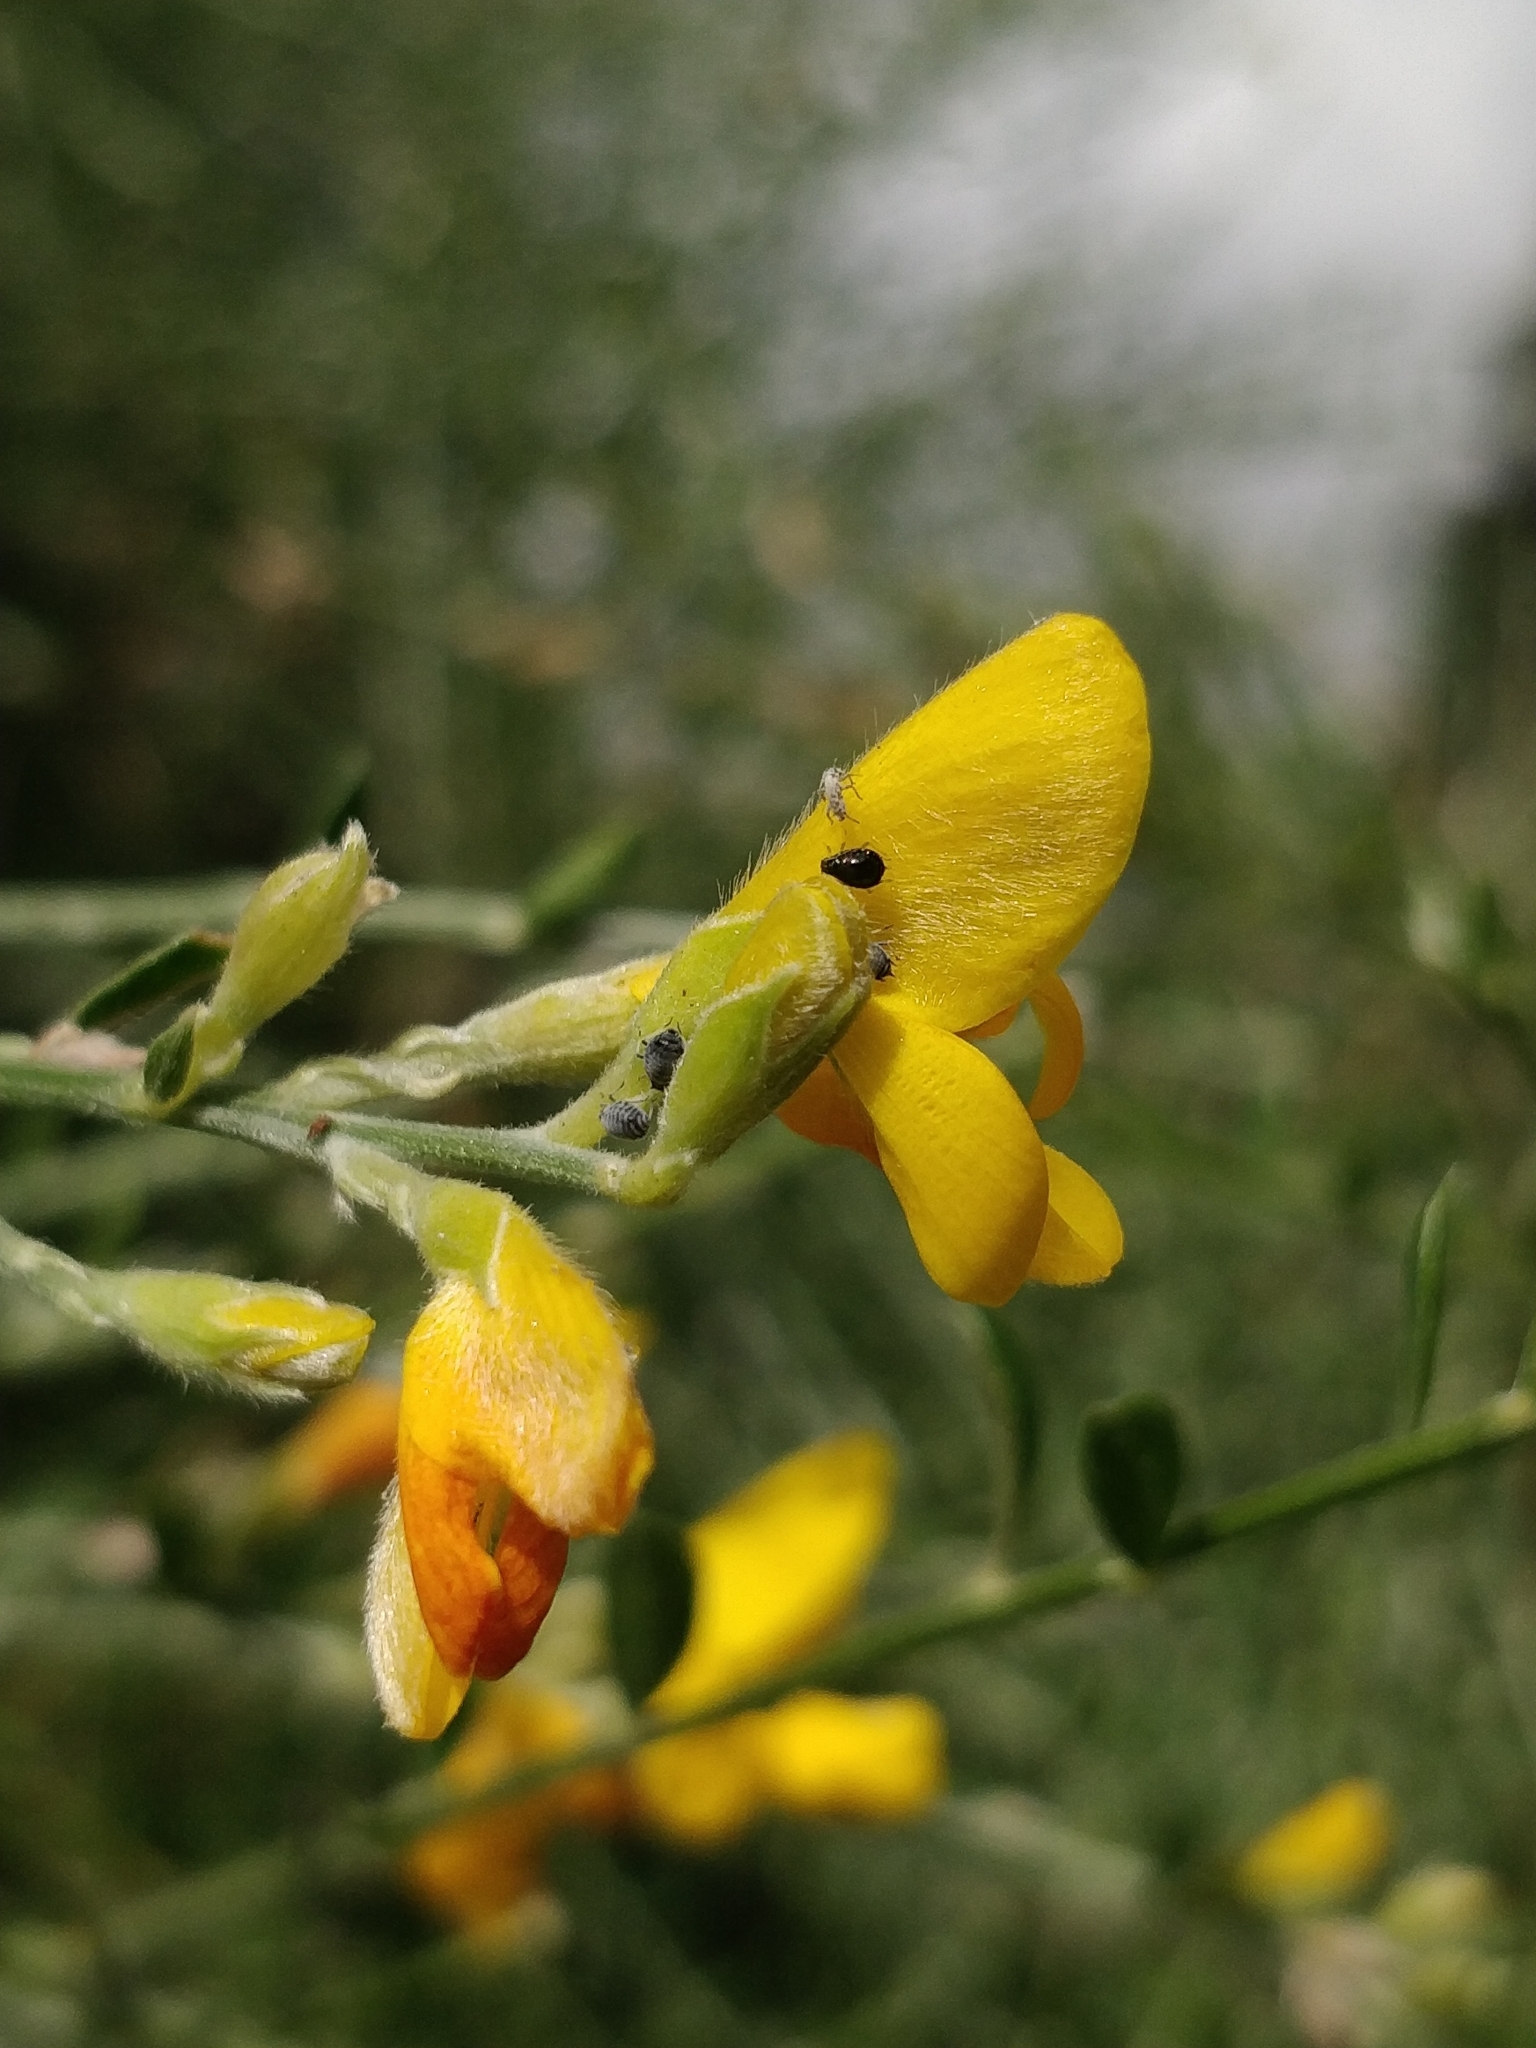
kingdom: Plantae
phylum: Tracheophyta
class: Magnoliopsida
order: Fabales
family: Fabaceae
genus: Genista
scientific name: Genista tenera
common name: Madeira broom
